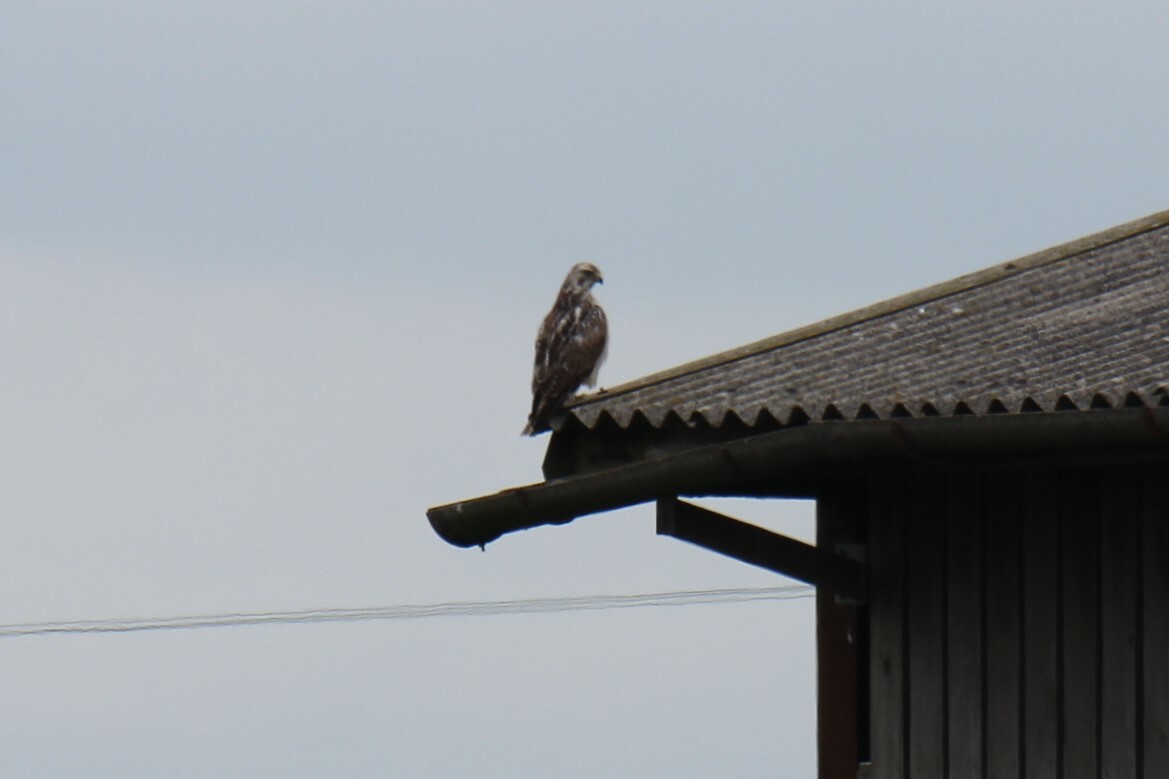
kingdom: Animalia
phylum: Chordata
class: Aves
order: Accipitriformes
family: Accipitridae
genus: Buteo
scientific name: Buteo buteo
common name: Common buzzard
